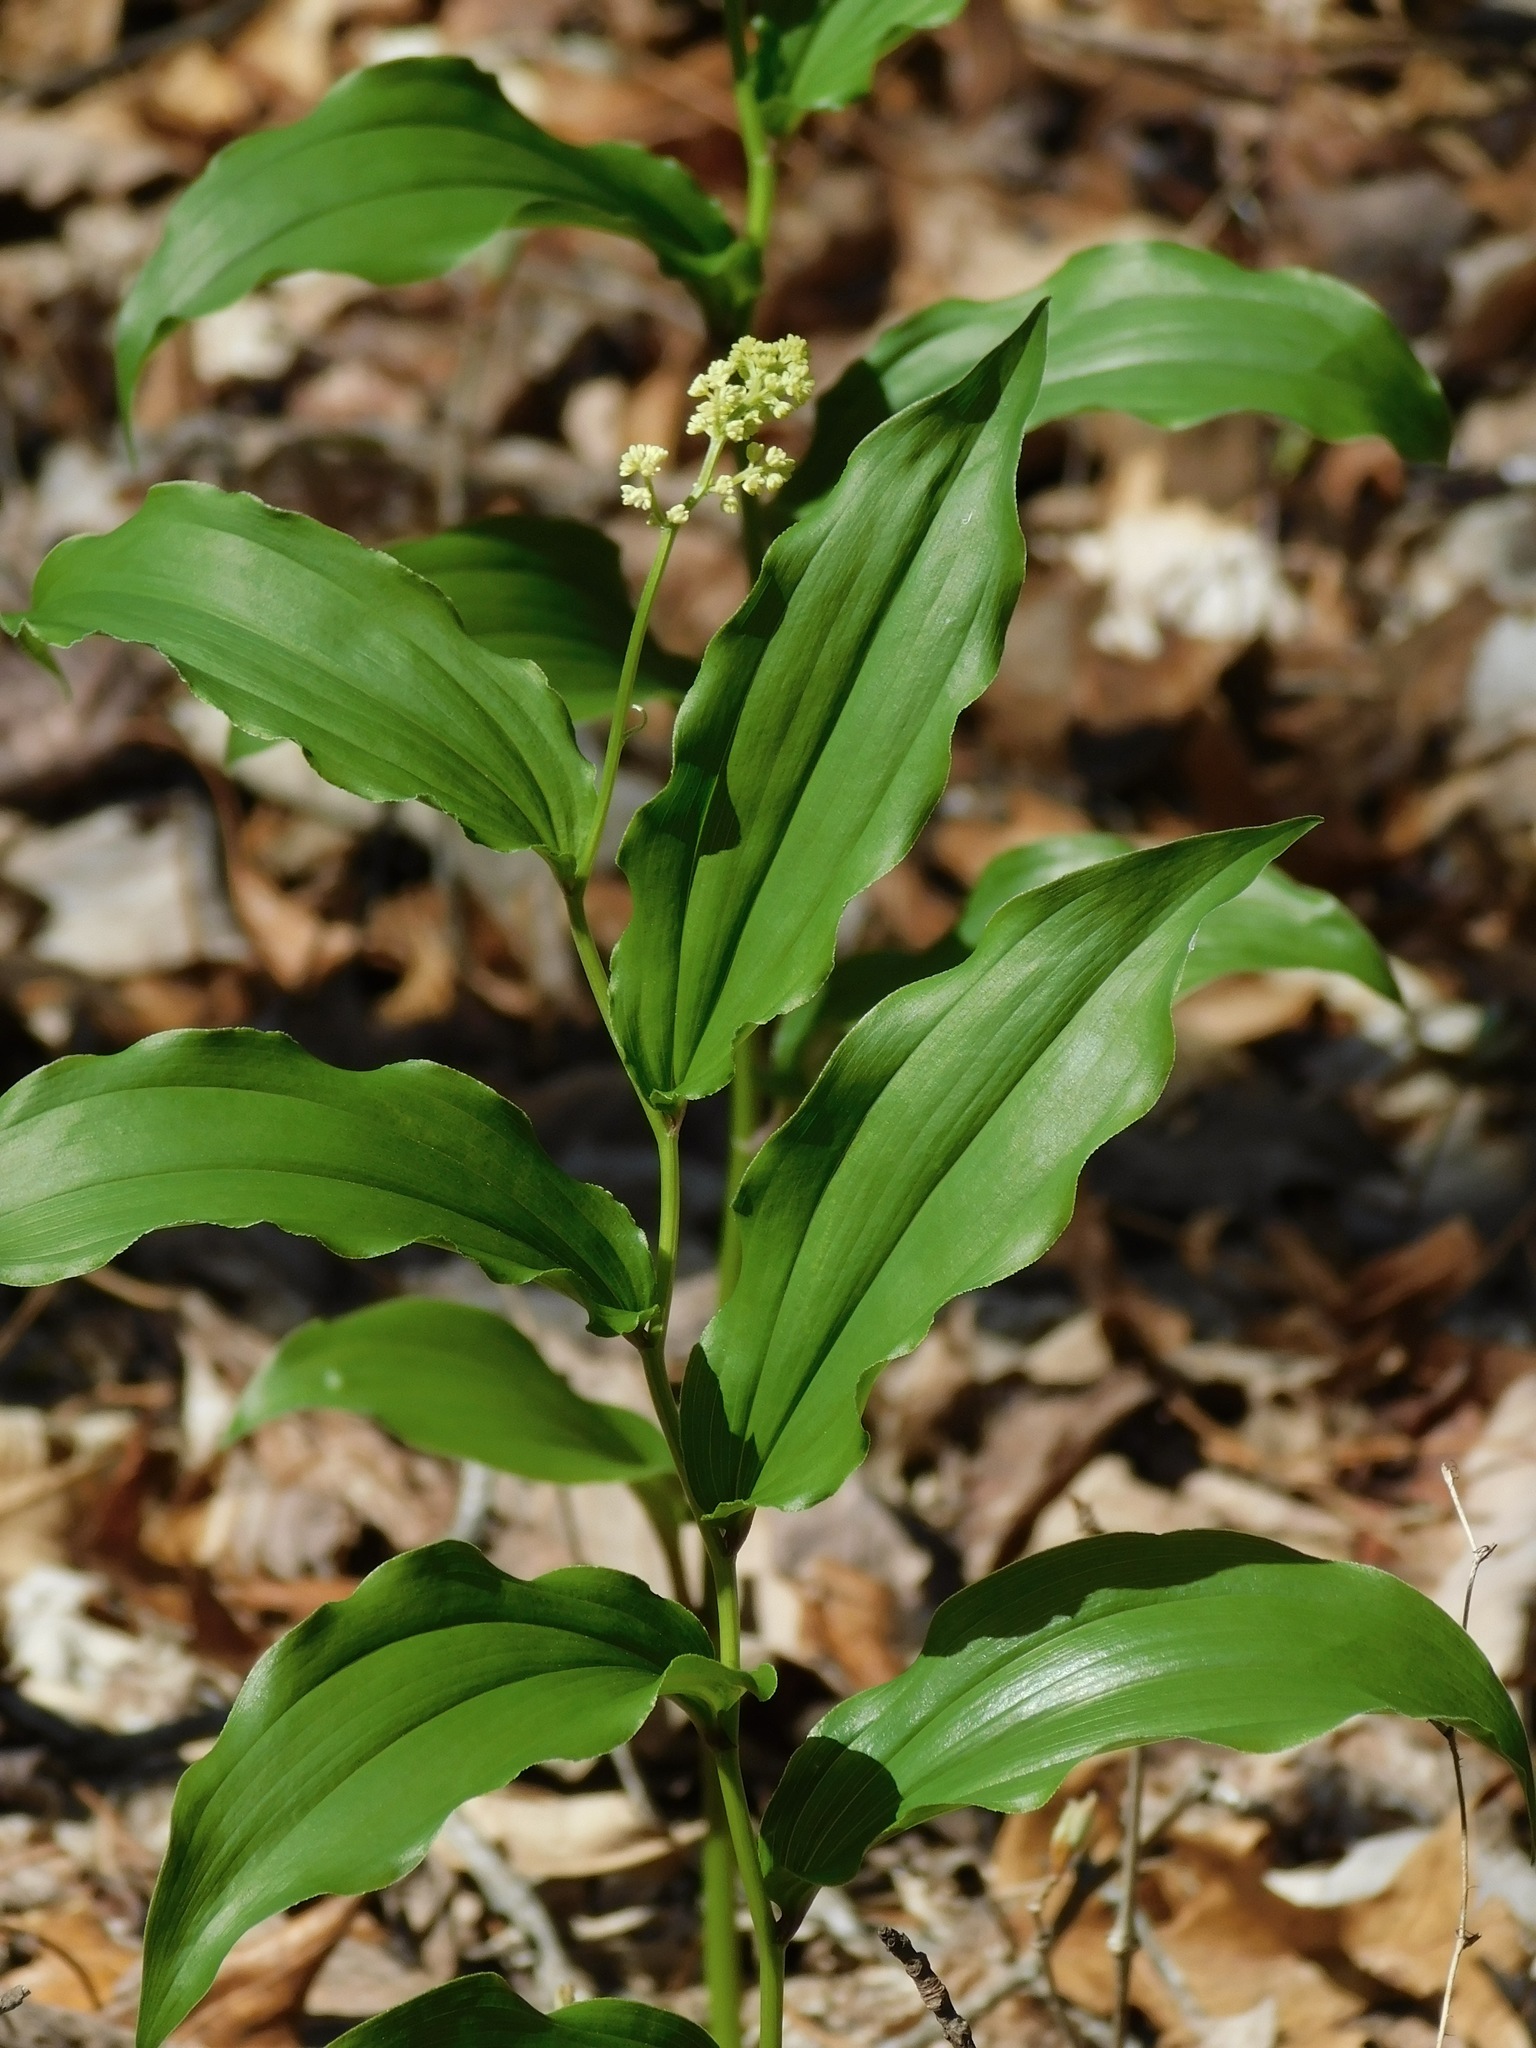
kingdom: Plantae
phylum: Tracheophyta
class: Liliopsida
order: Asparagales
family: Asparagaceae
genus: Maianthemum
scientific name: Maianthemum racemosum
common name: False spikenard
